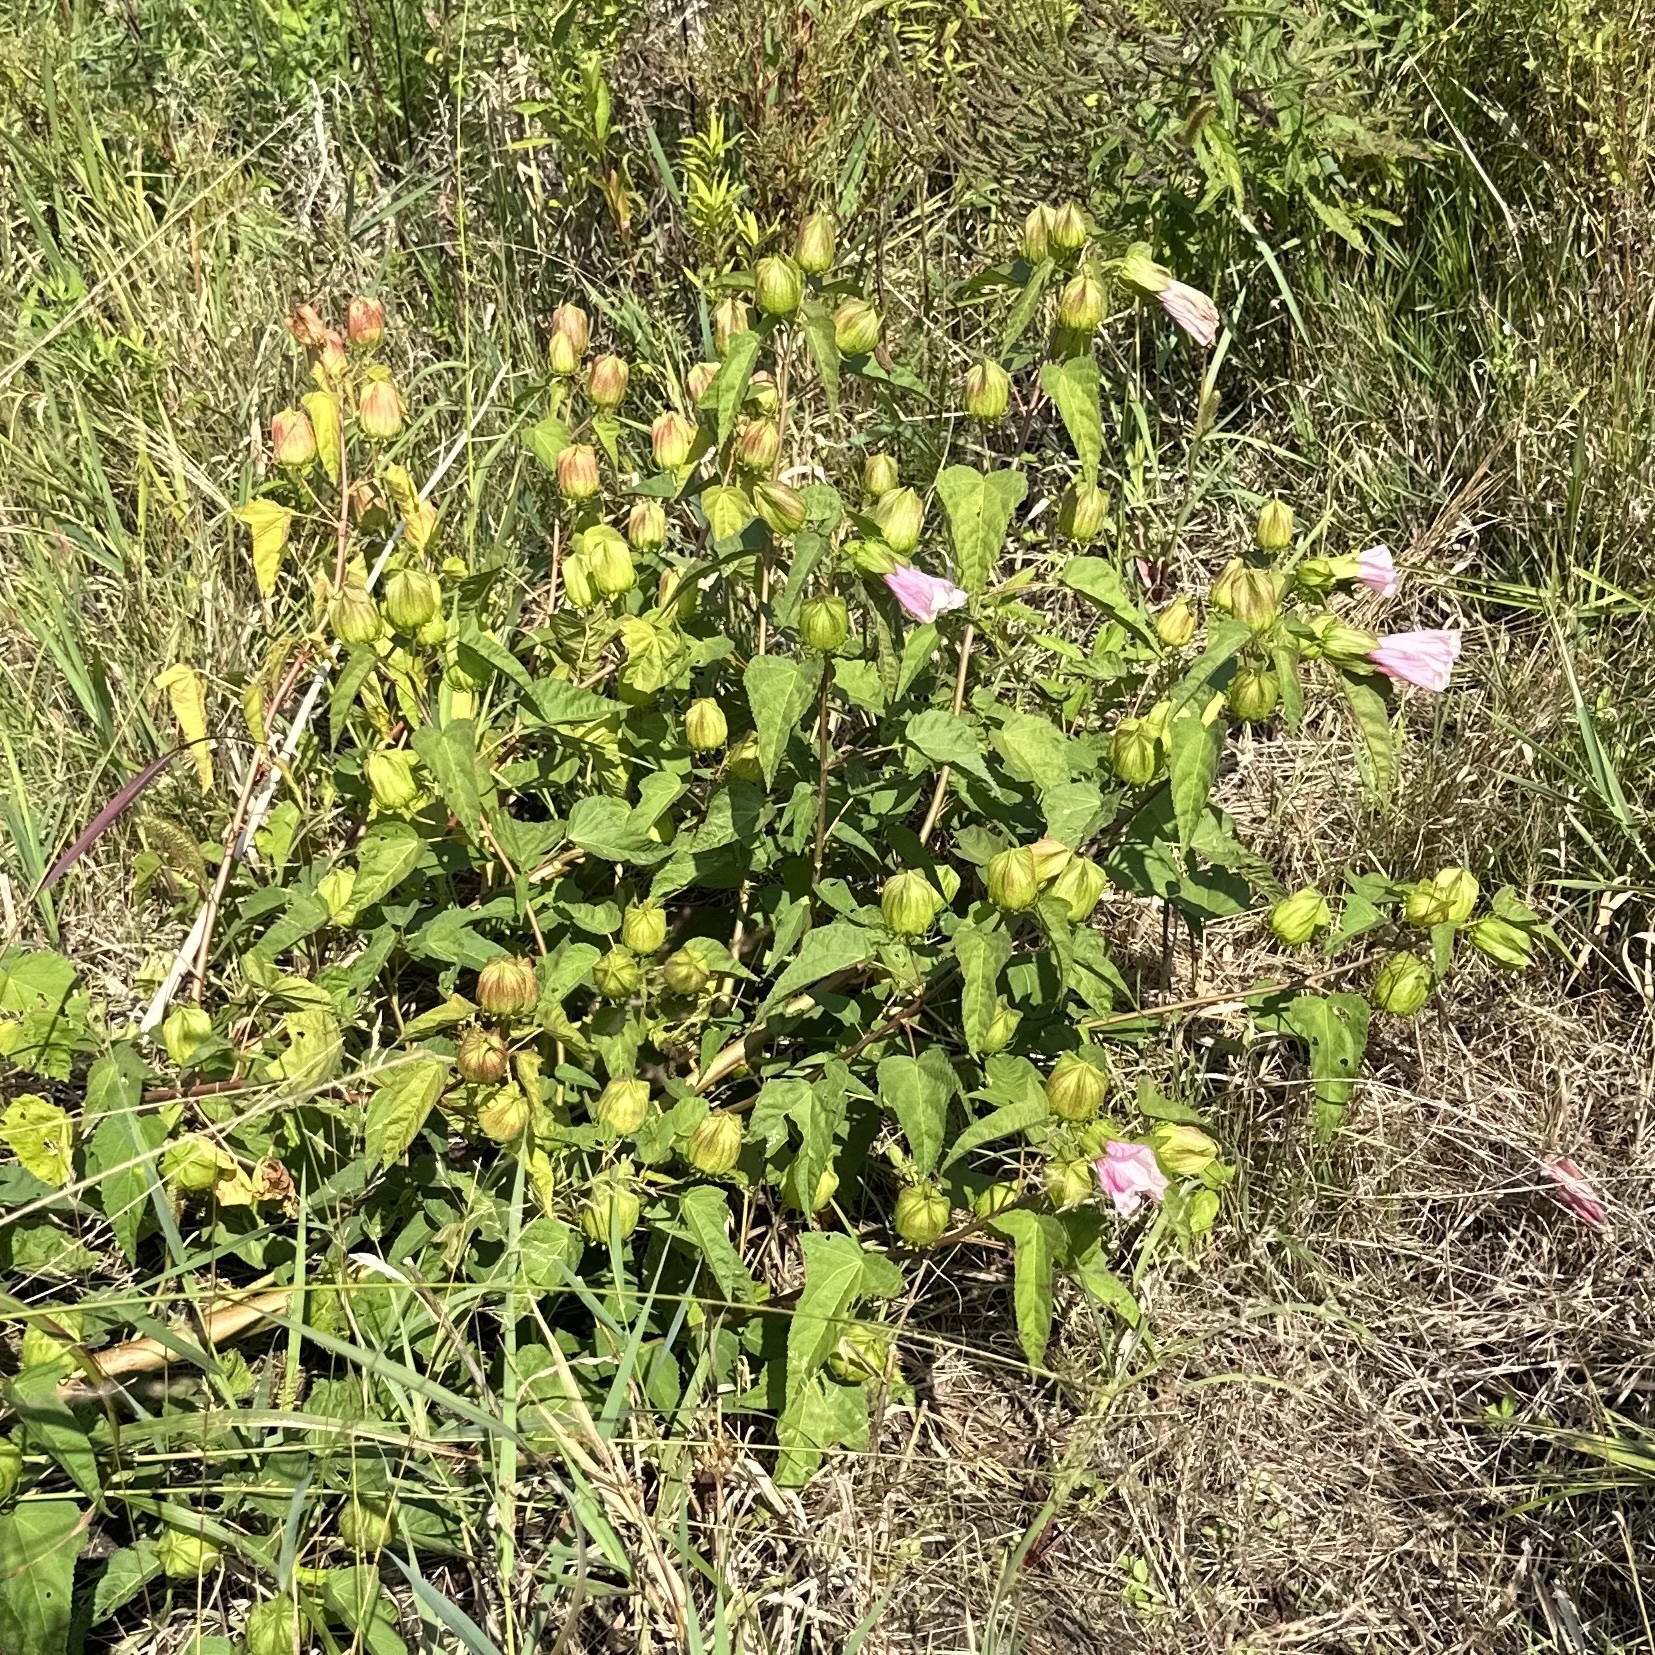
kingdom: Plantae
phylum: Tracheophyta
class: Magnoliopsida
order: Malvales
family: Malvaceae
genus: Hibiscus
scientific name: Hibiscus laevis
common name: Scarlet rose-mallow
